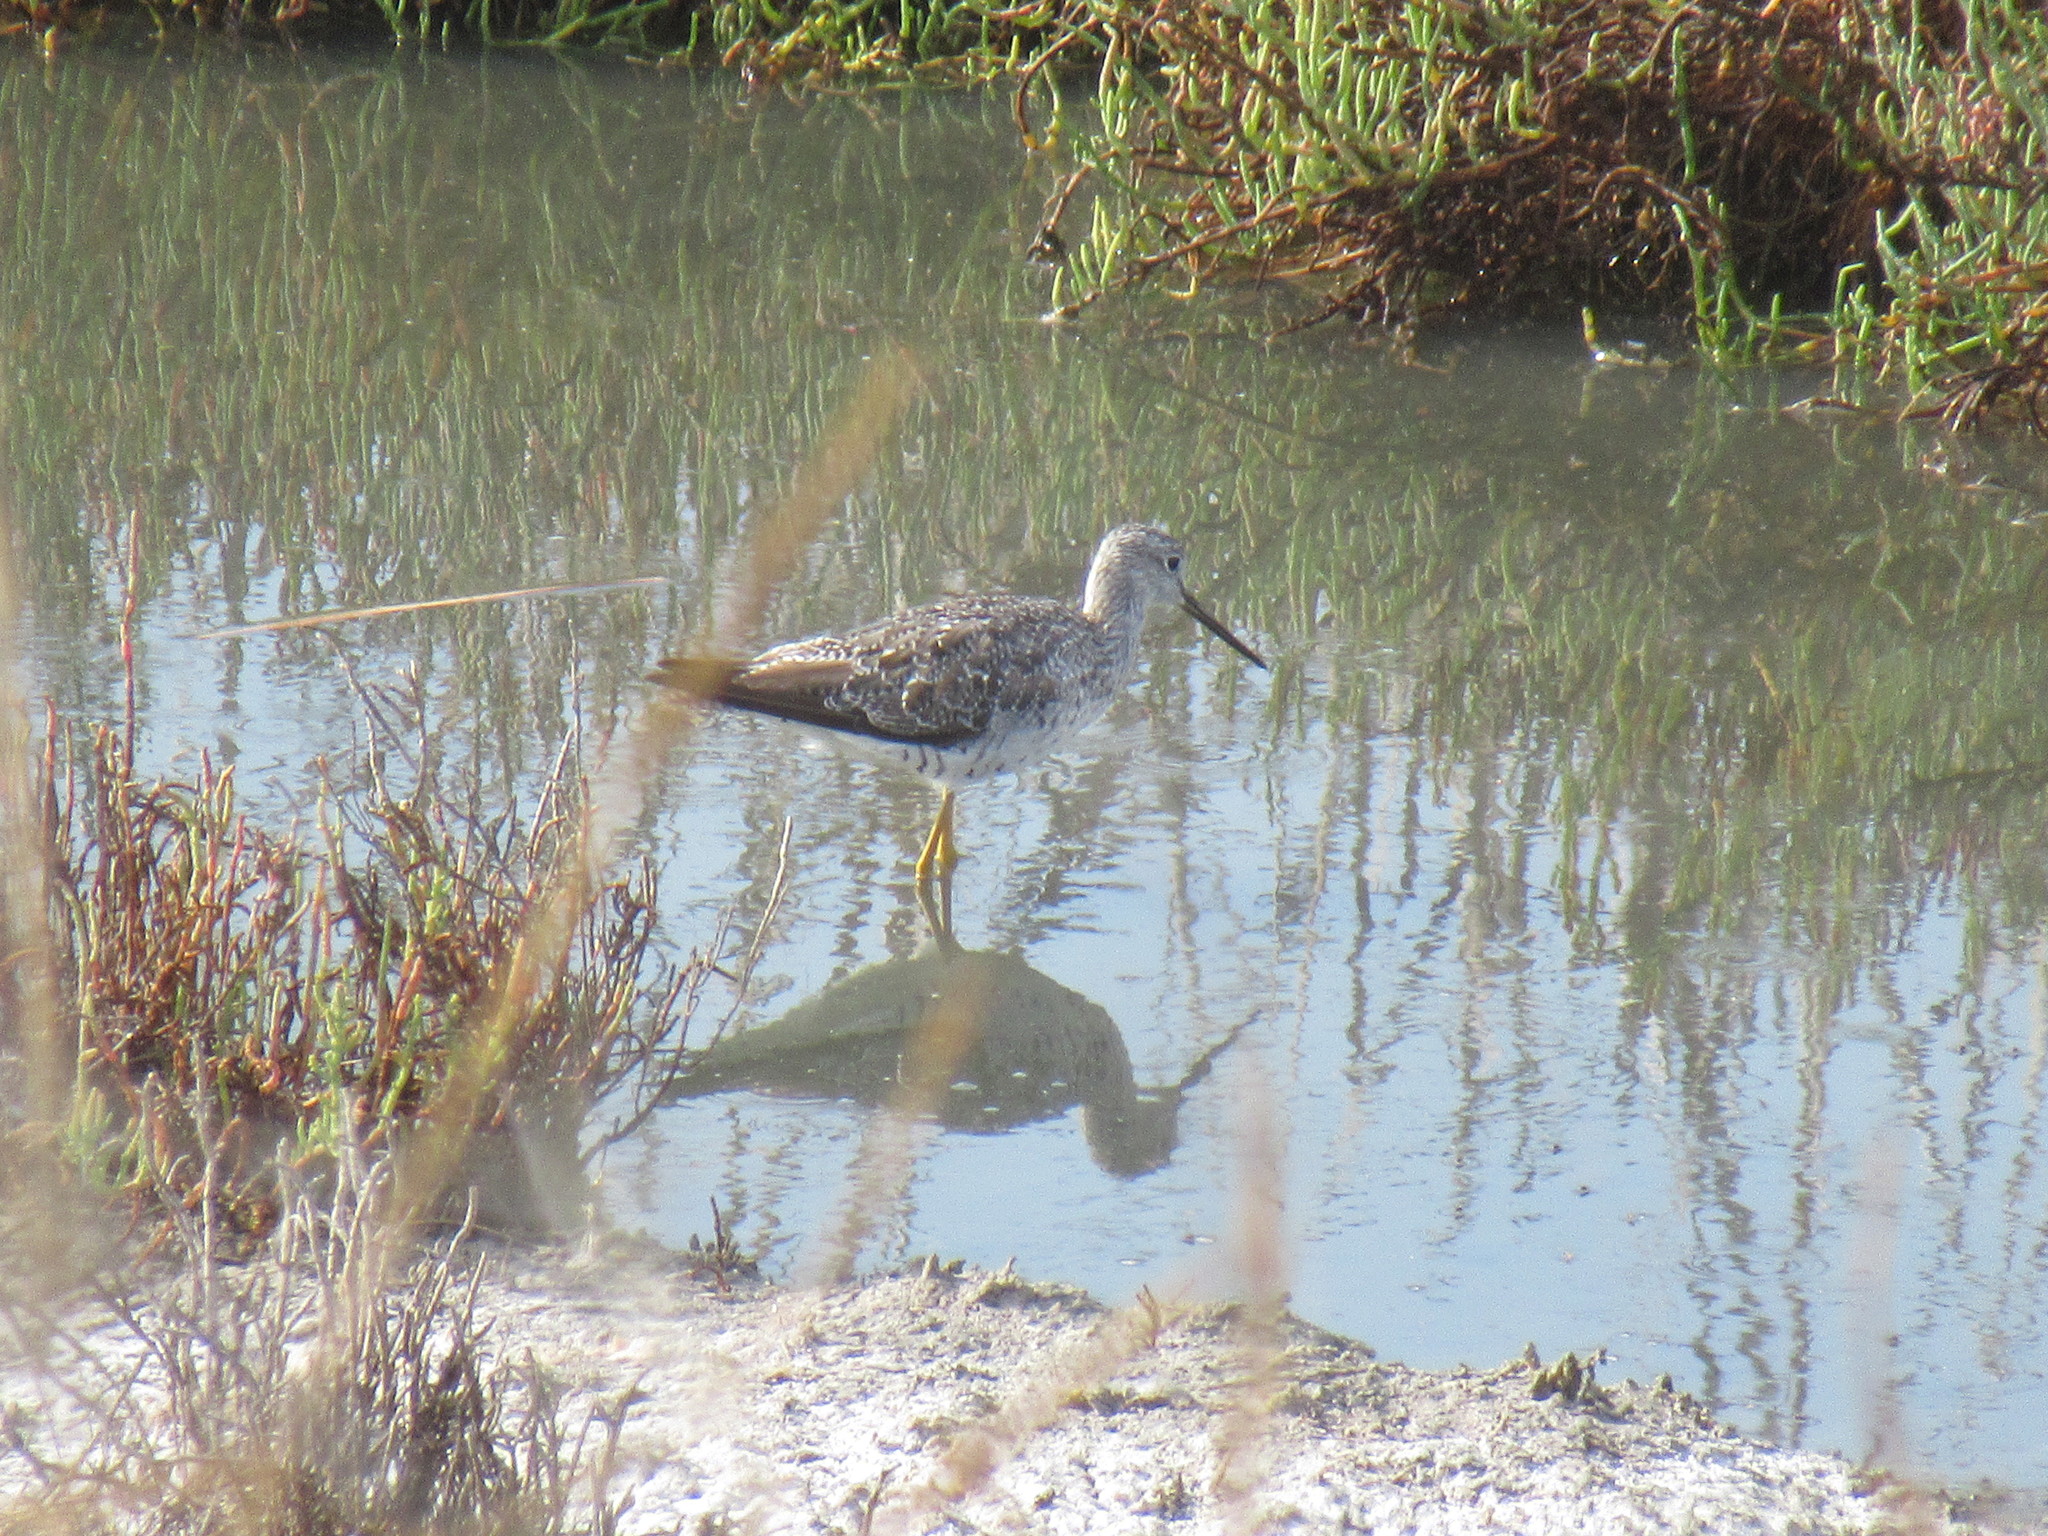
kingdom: Animalia
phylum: Chordata
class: Aves
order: Charadriiformes
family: Scolopacidae
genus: Tringa
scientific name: Tringa melanoleuca
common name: Greater yellowlegs
